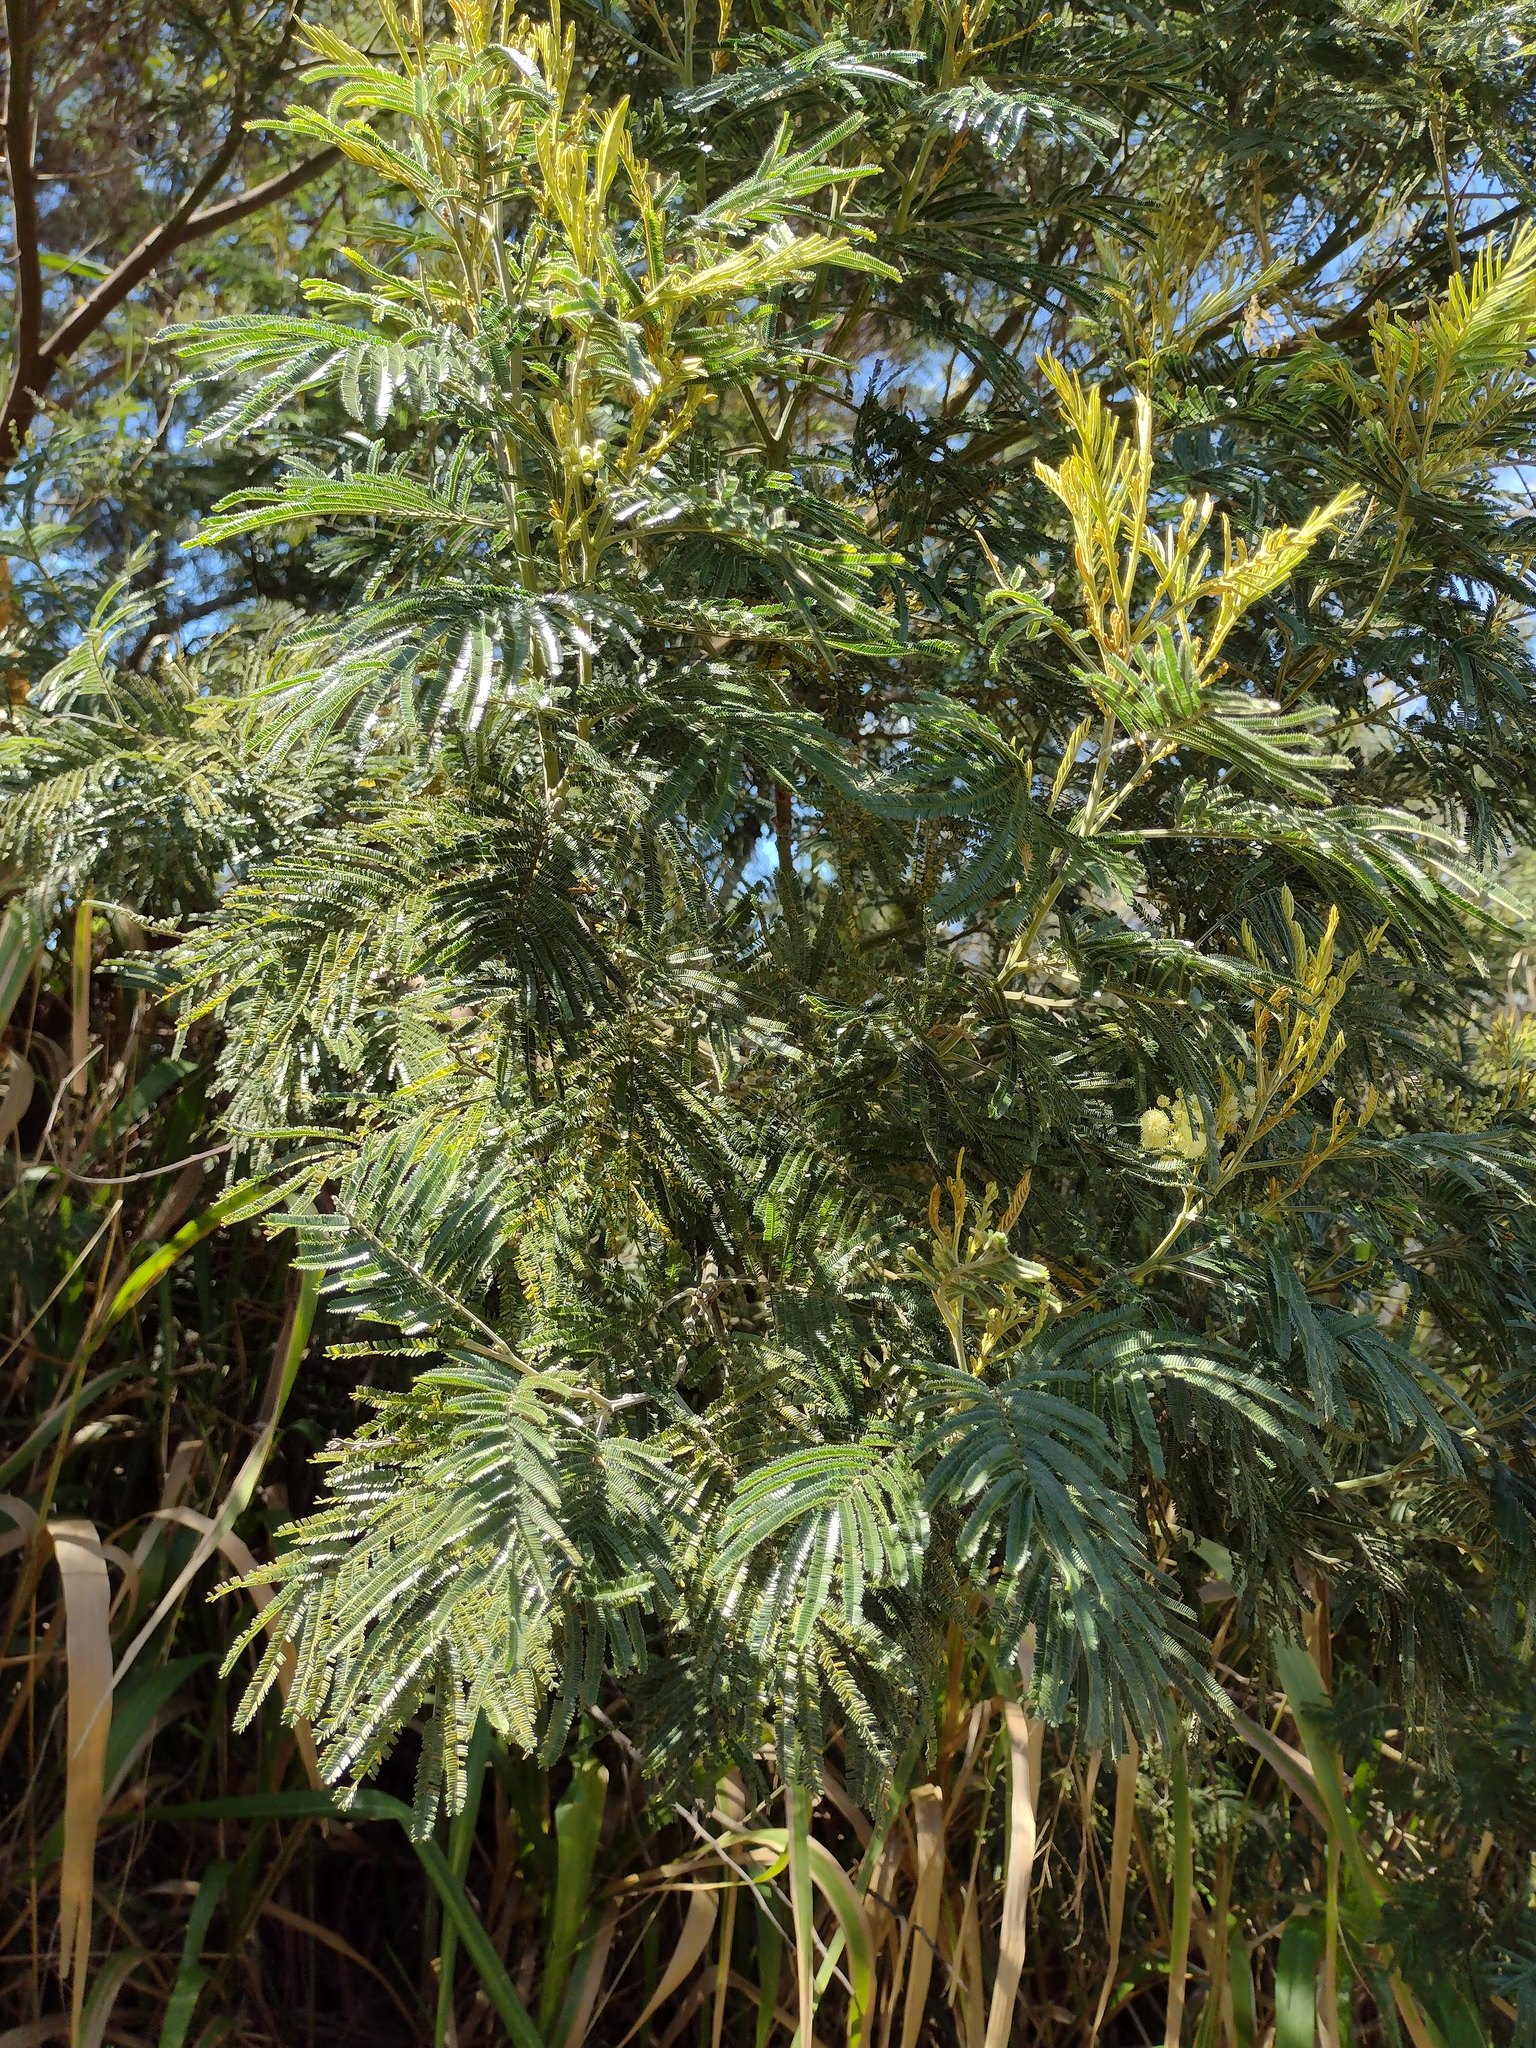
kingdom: Plantae
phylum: Tracheophyta
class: Magnoliopsida
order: Fabales
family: Fabaceae
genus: Acacia
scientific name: Acacia mearnsii
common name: Black wattle
